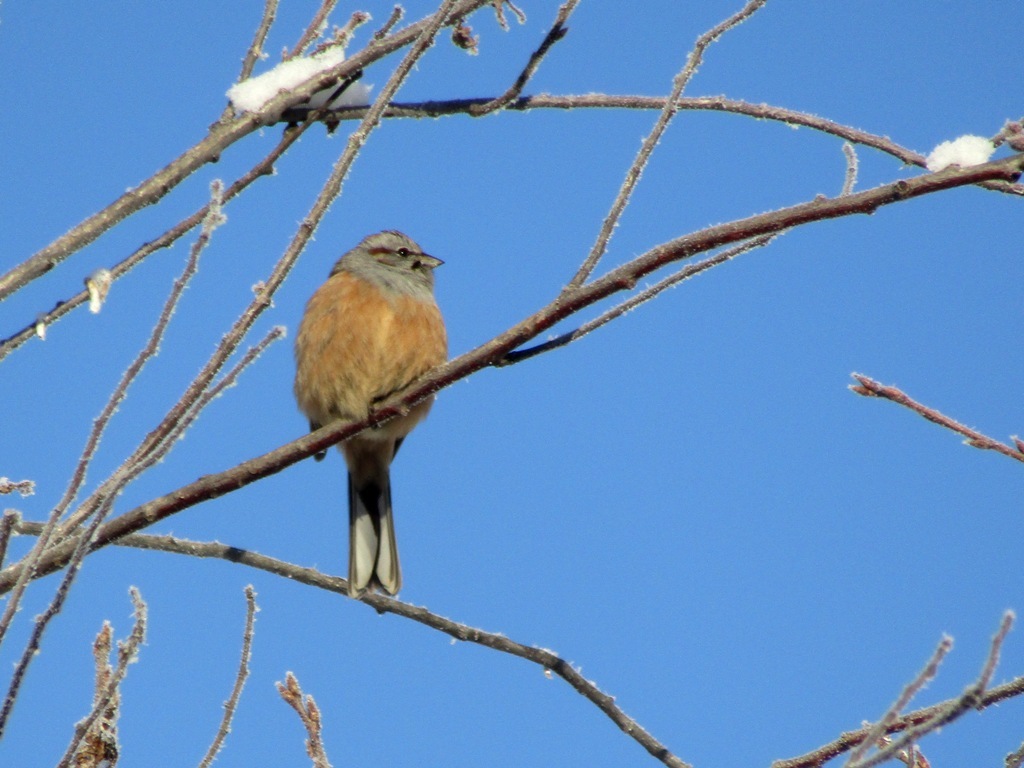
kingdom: Animalia
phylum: Chordata
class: Aves
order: Passeriformes
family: Emberizidae
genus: Emberiza
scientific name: Emberiza godlewskii
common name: Godlewski's bunting
